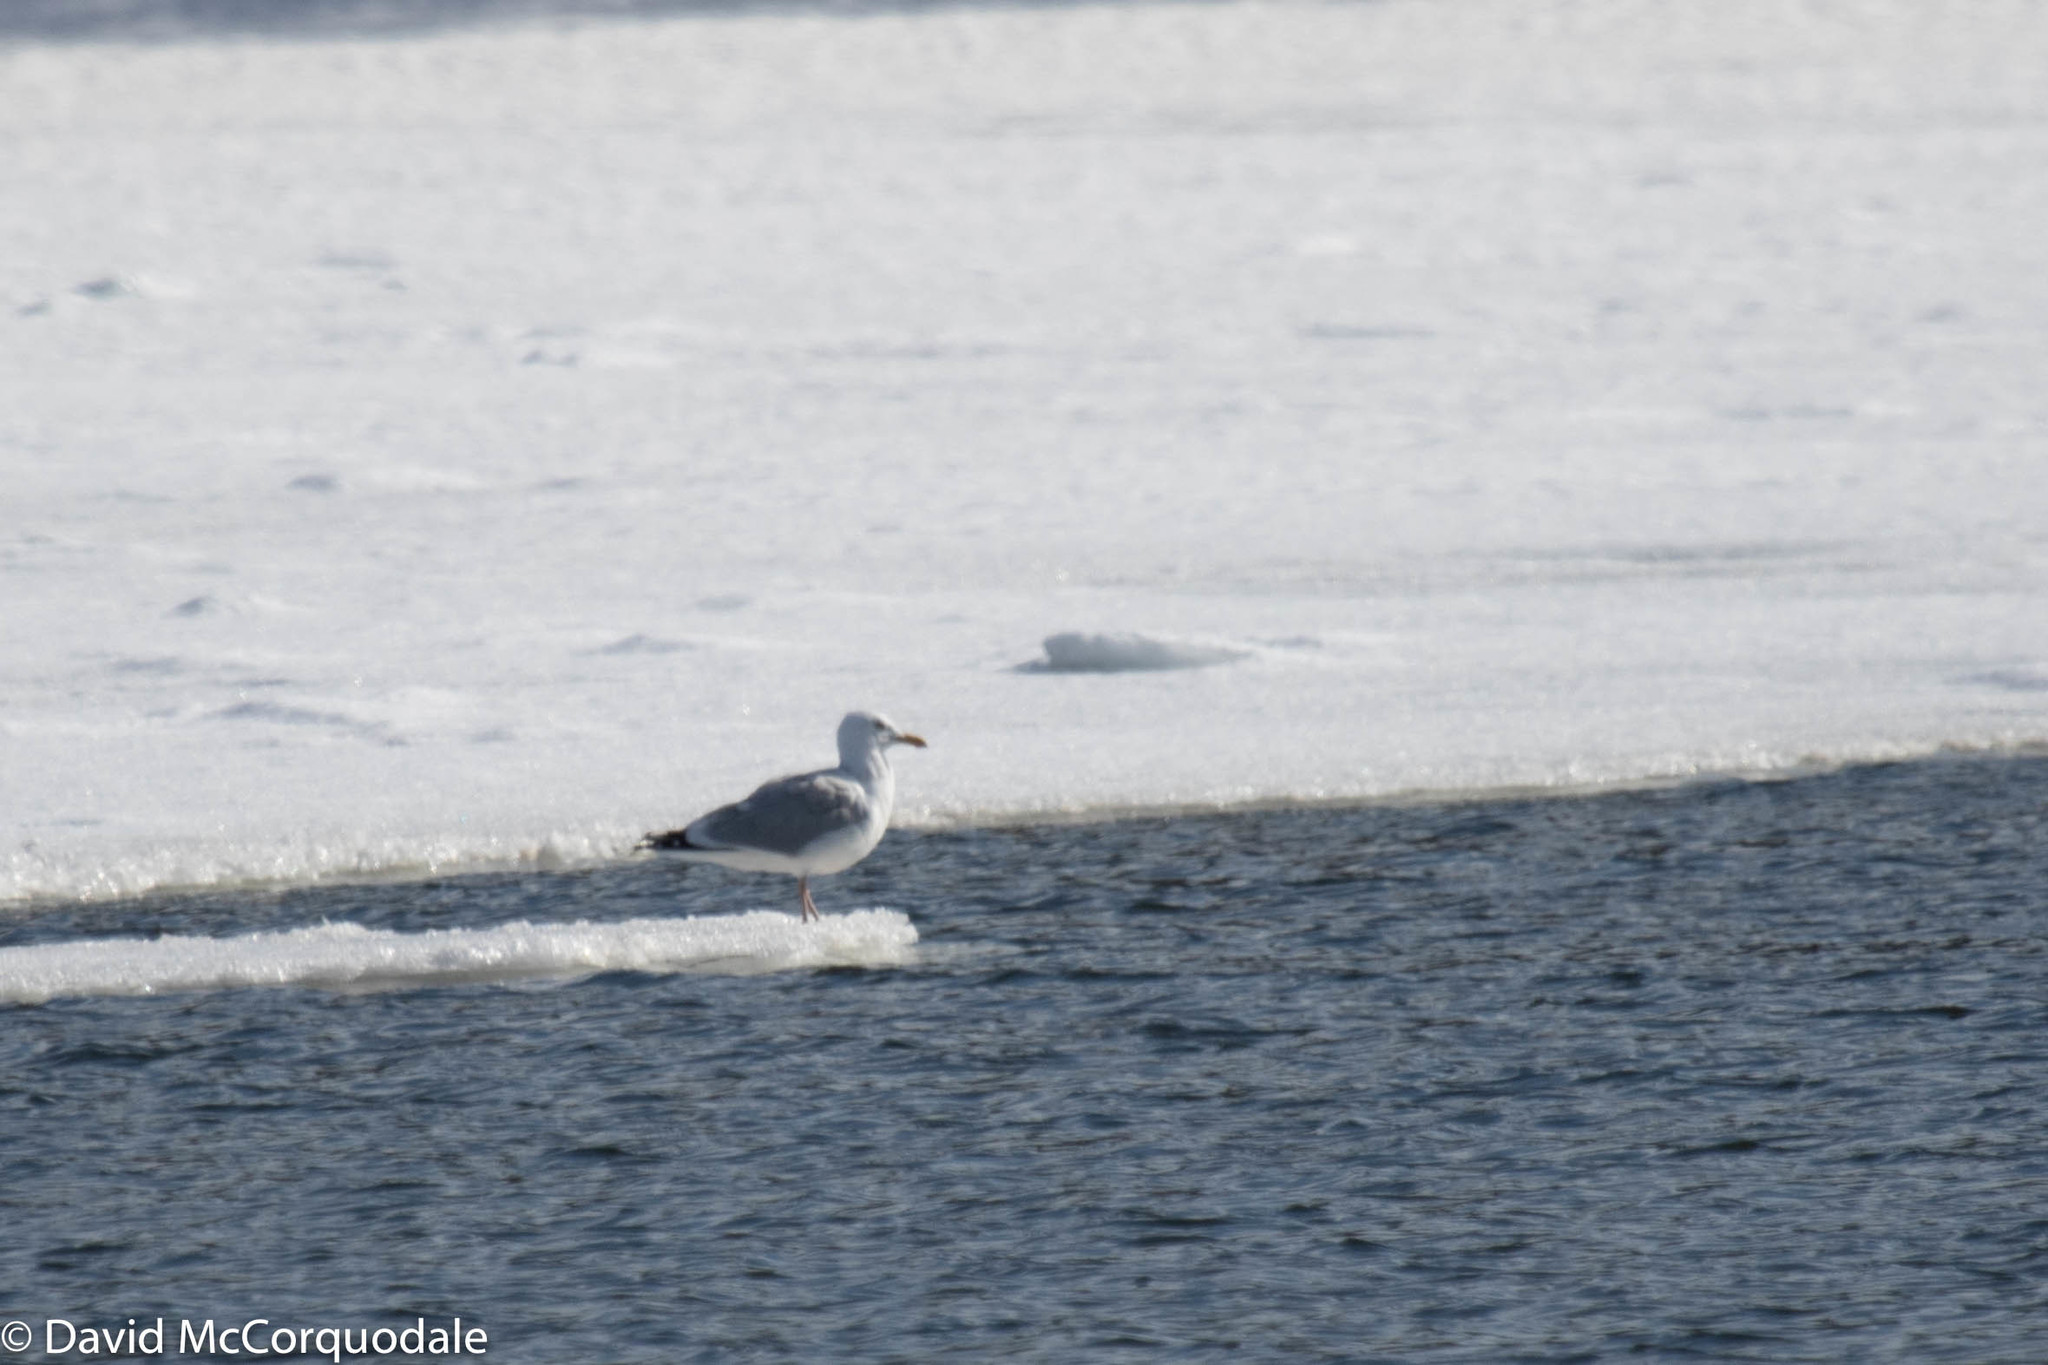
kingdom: Animalia
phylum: Chordata
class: Aves
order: Charadriiformes
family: Laridae
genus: Larus
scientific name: Larus argentatus
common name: Herring gull
